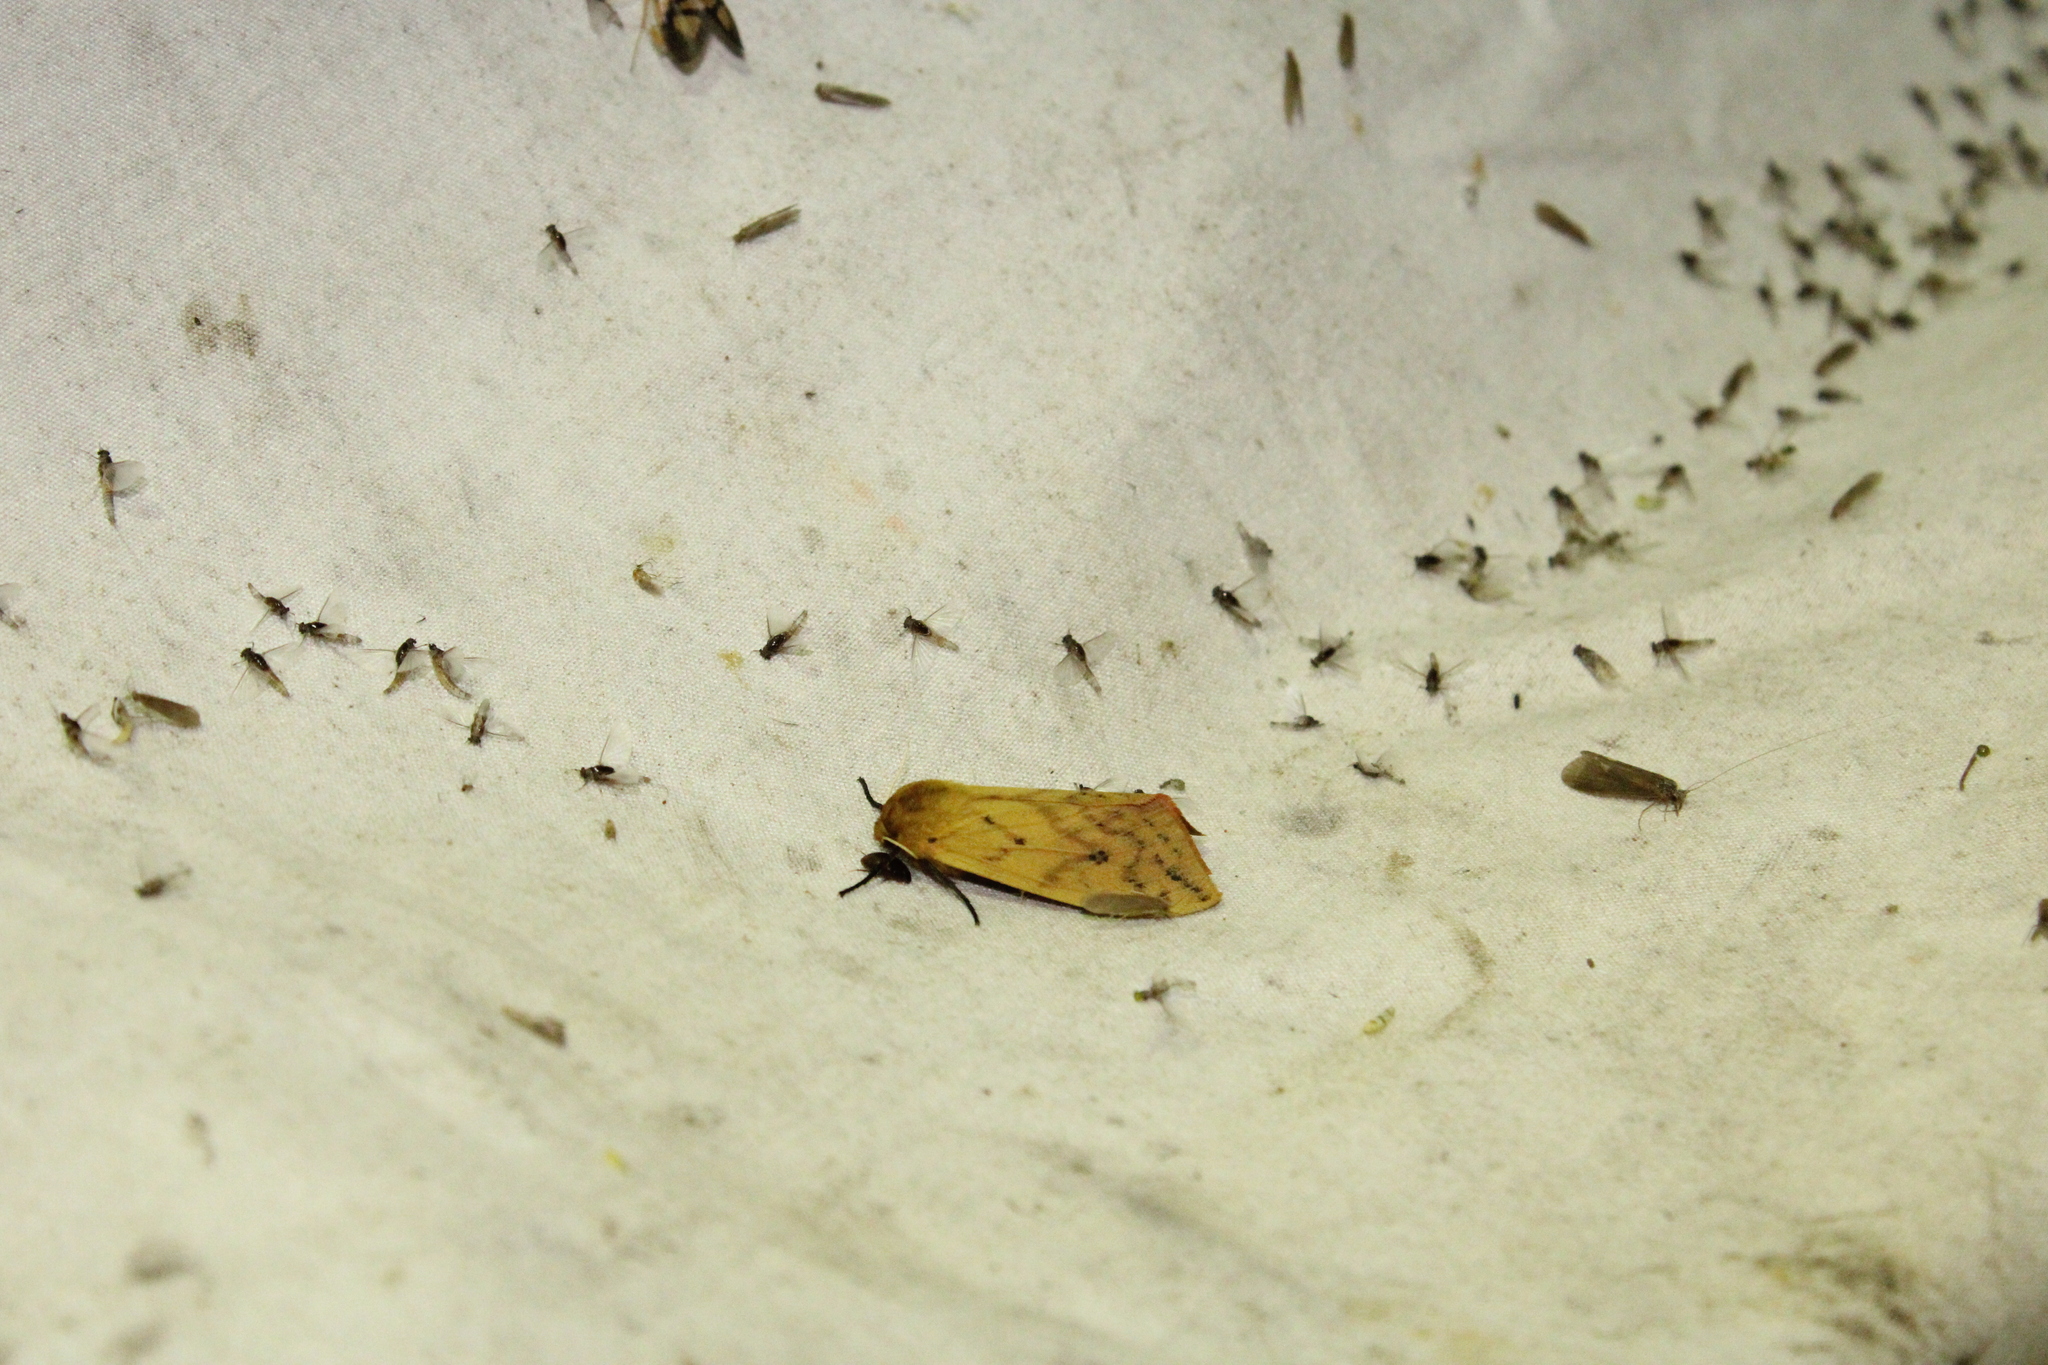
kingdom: Animalia
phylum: Arthropoda
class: Insecta
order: Lepidoptera
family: Erebidae
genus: Pyrrharctia
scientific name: Pyrrharctia isabella
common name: Isabella tiger moth
